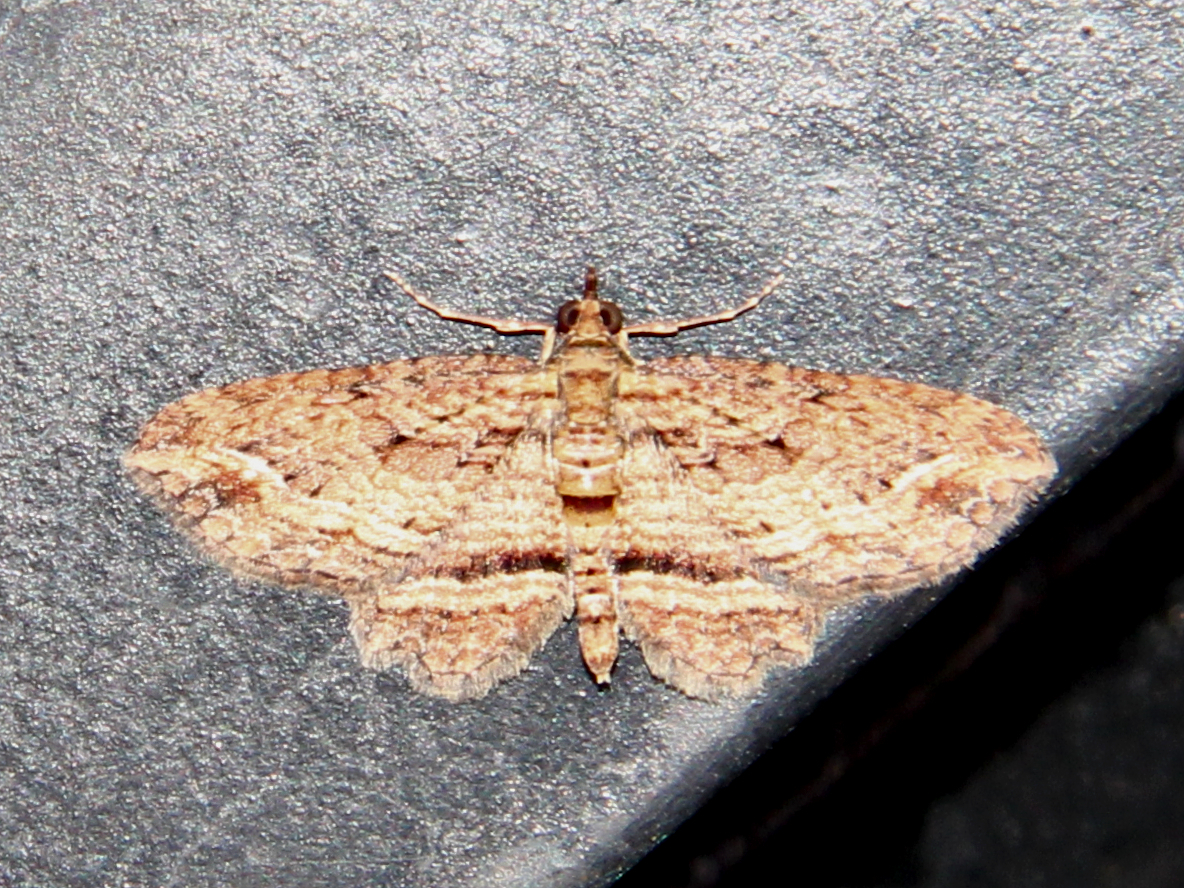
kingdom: Animalia
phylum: Arthropoda
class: Insecta
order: Lepidoptera
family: Geometridae
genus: Chloroclystis
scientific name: Chloroclystis filata
